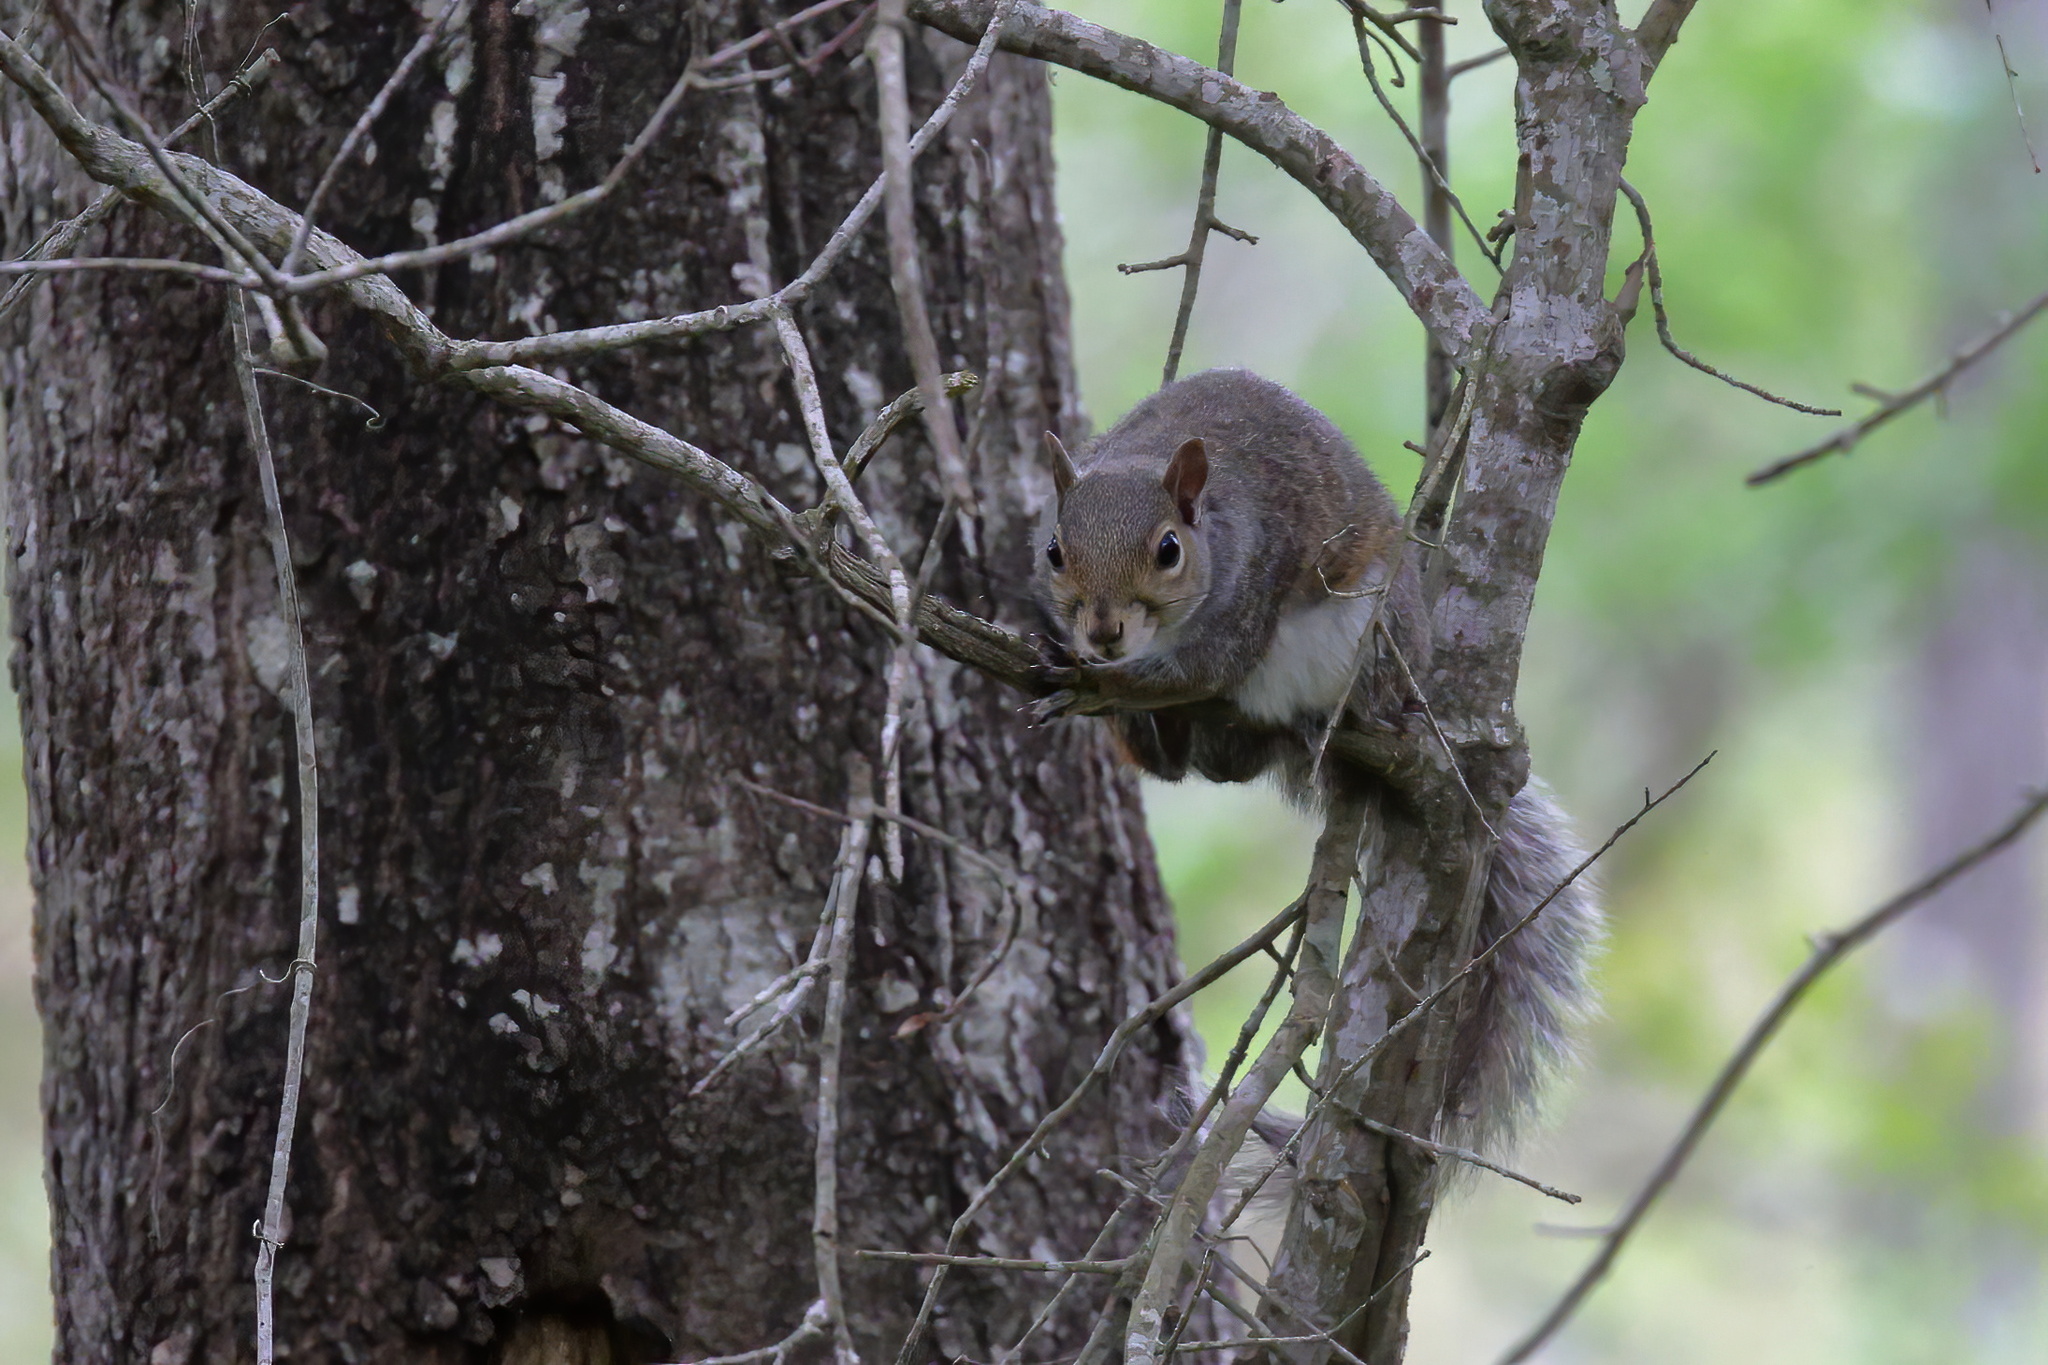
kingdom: Animalia
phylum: Chordata
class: Mammalia
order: Rodentia
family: Sciuridae
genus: Sciurus
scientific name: Sciurus carolinensis
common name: Eastern gray squirrel
